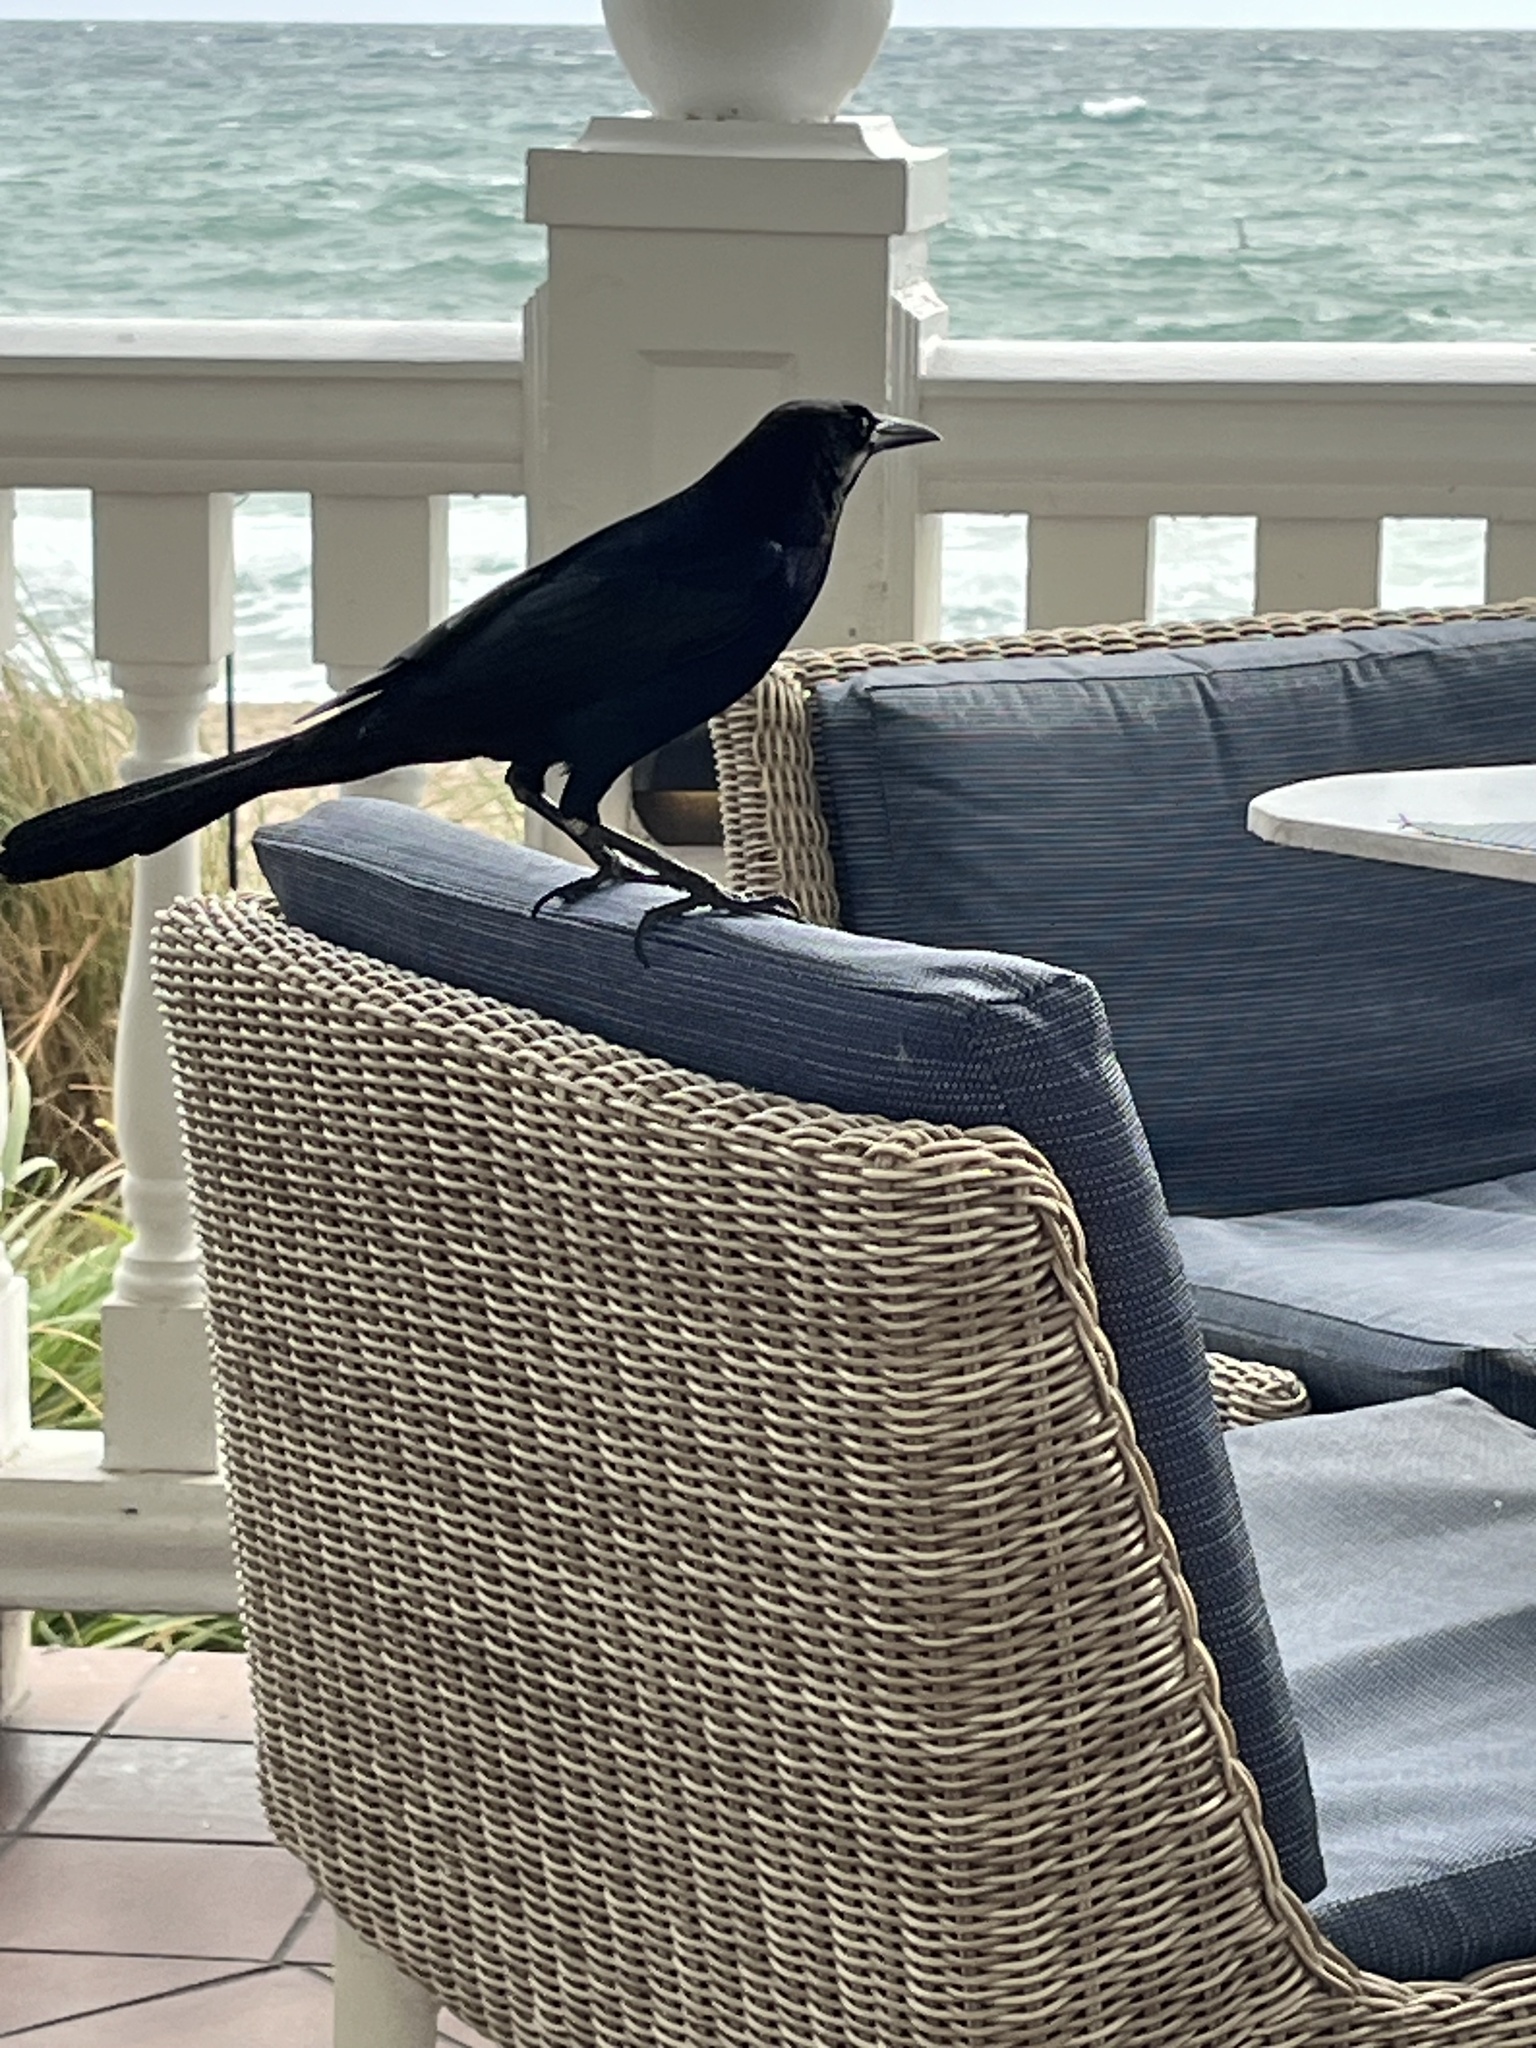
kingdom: Animalia
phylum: Chordata
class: Aves
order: Passeriformes
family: Icteridae
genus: Quiscalus
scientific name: Quiscalus major
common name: Boat-tailed grackle
